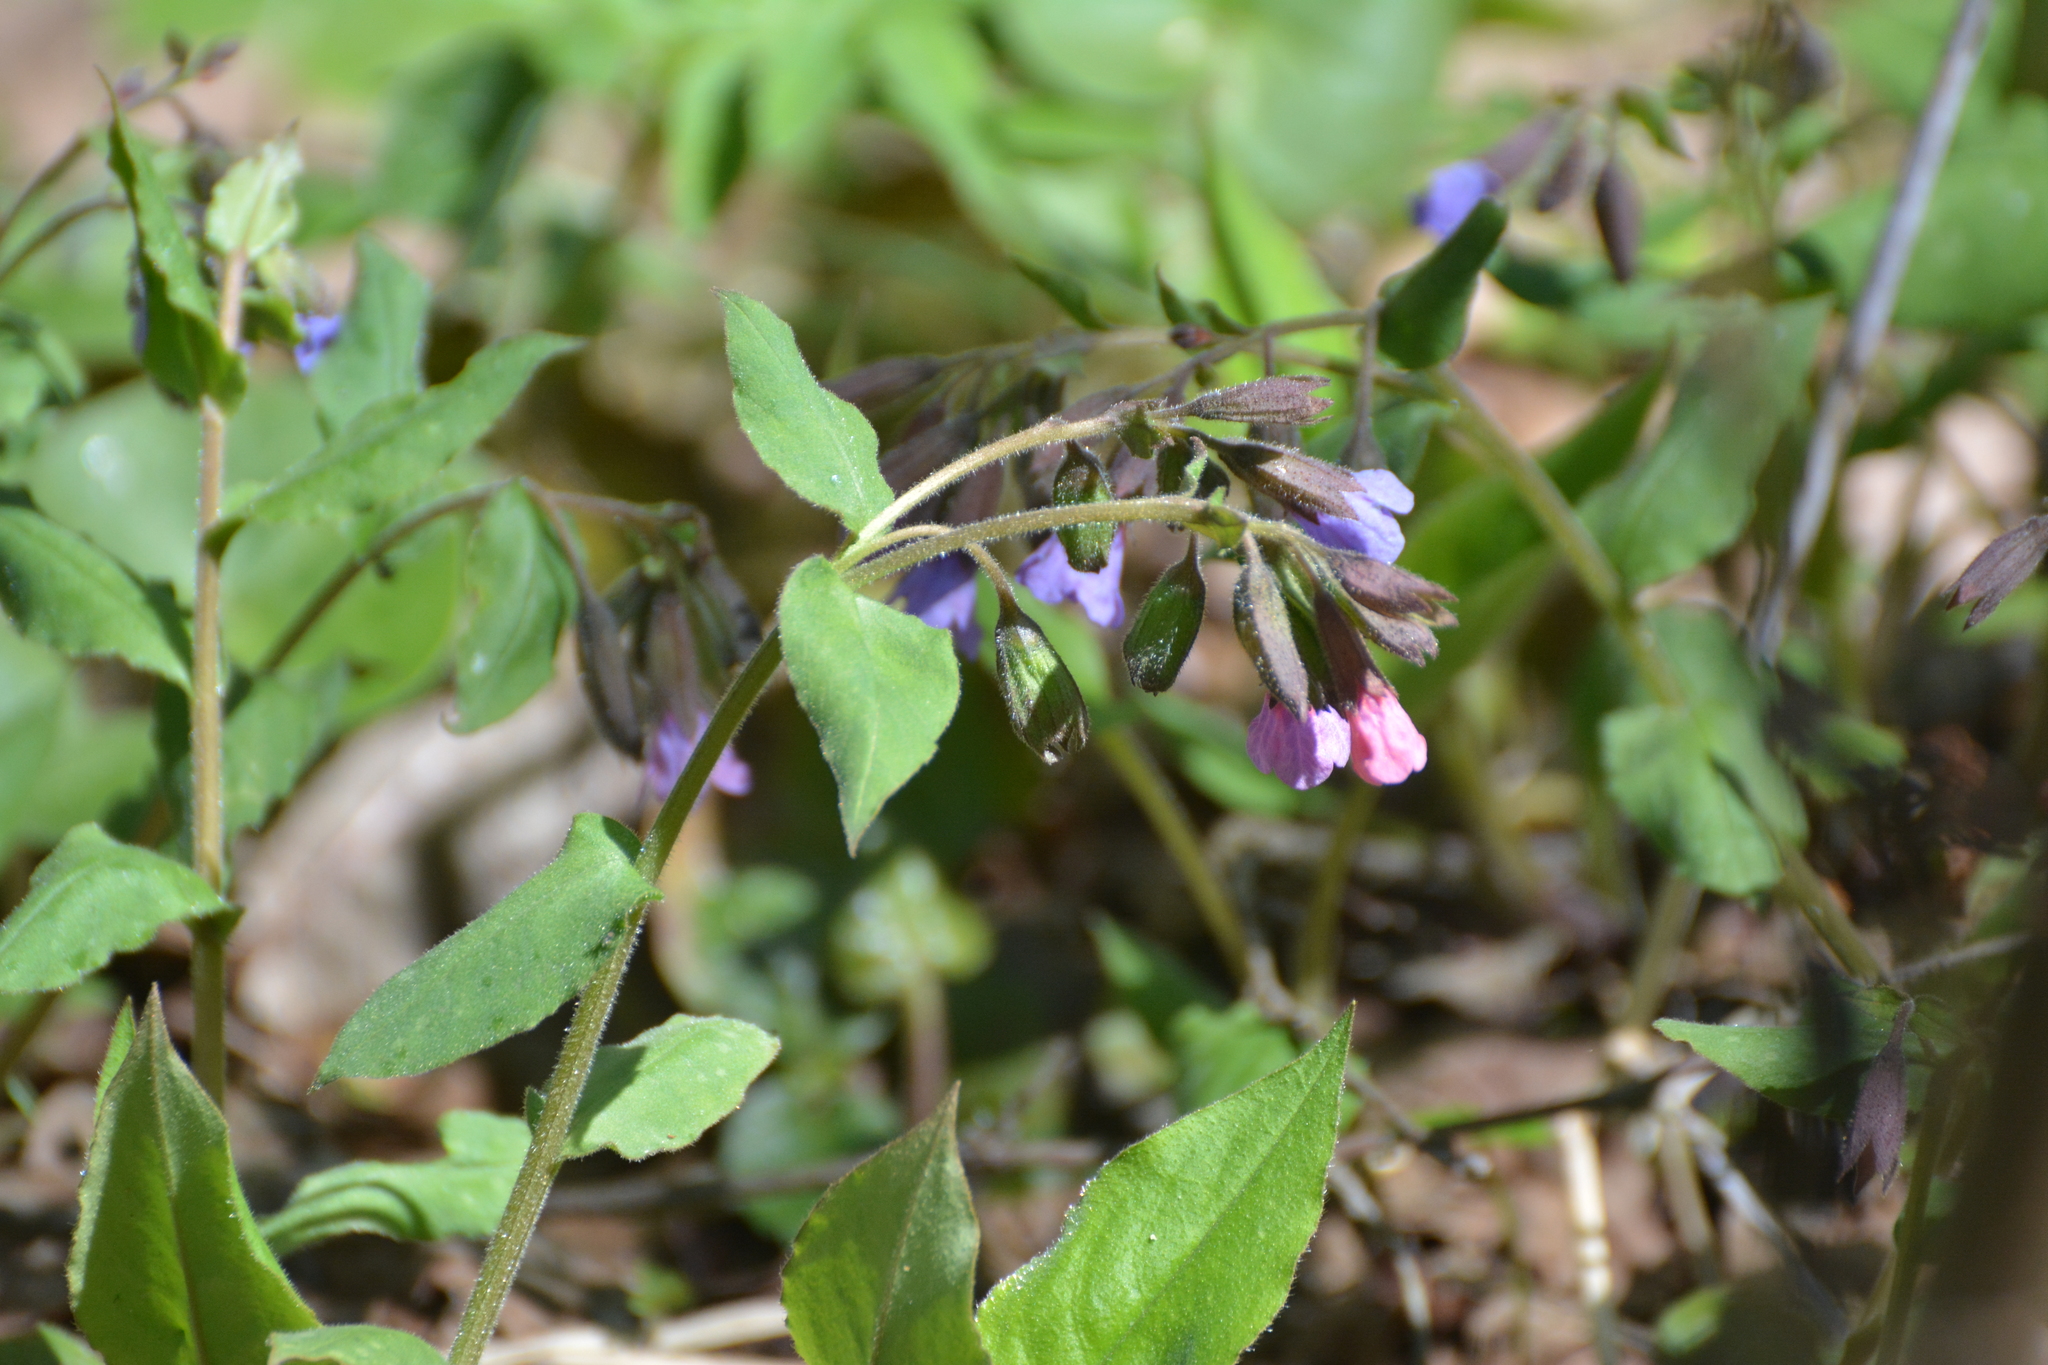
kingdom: Plantae
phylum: Tracheophyta
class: Magnoliopsida
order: Boraginales
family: Boraginaceae
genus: Pulmonaria
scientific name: Pulmonaria obscura
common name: Suffolk lungwort
